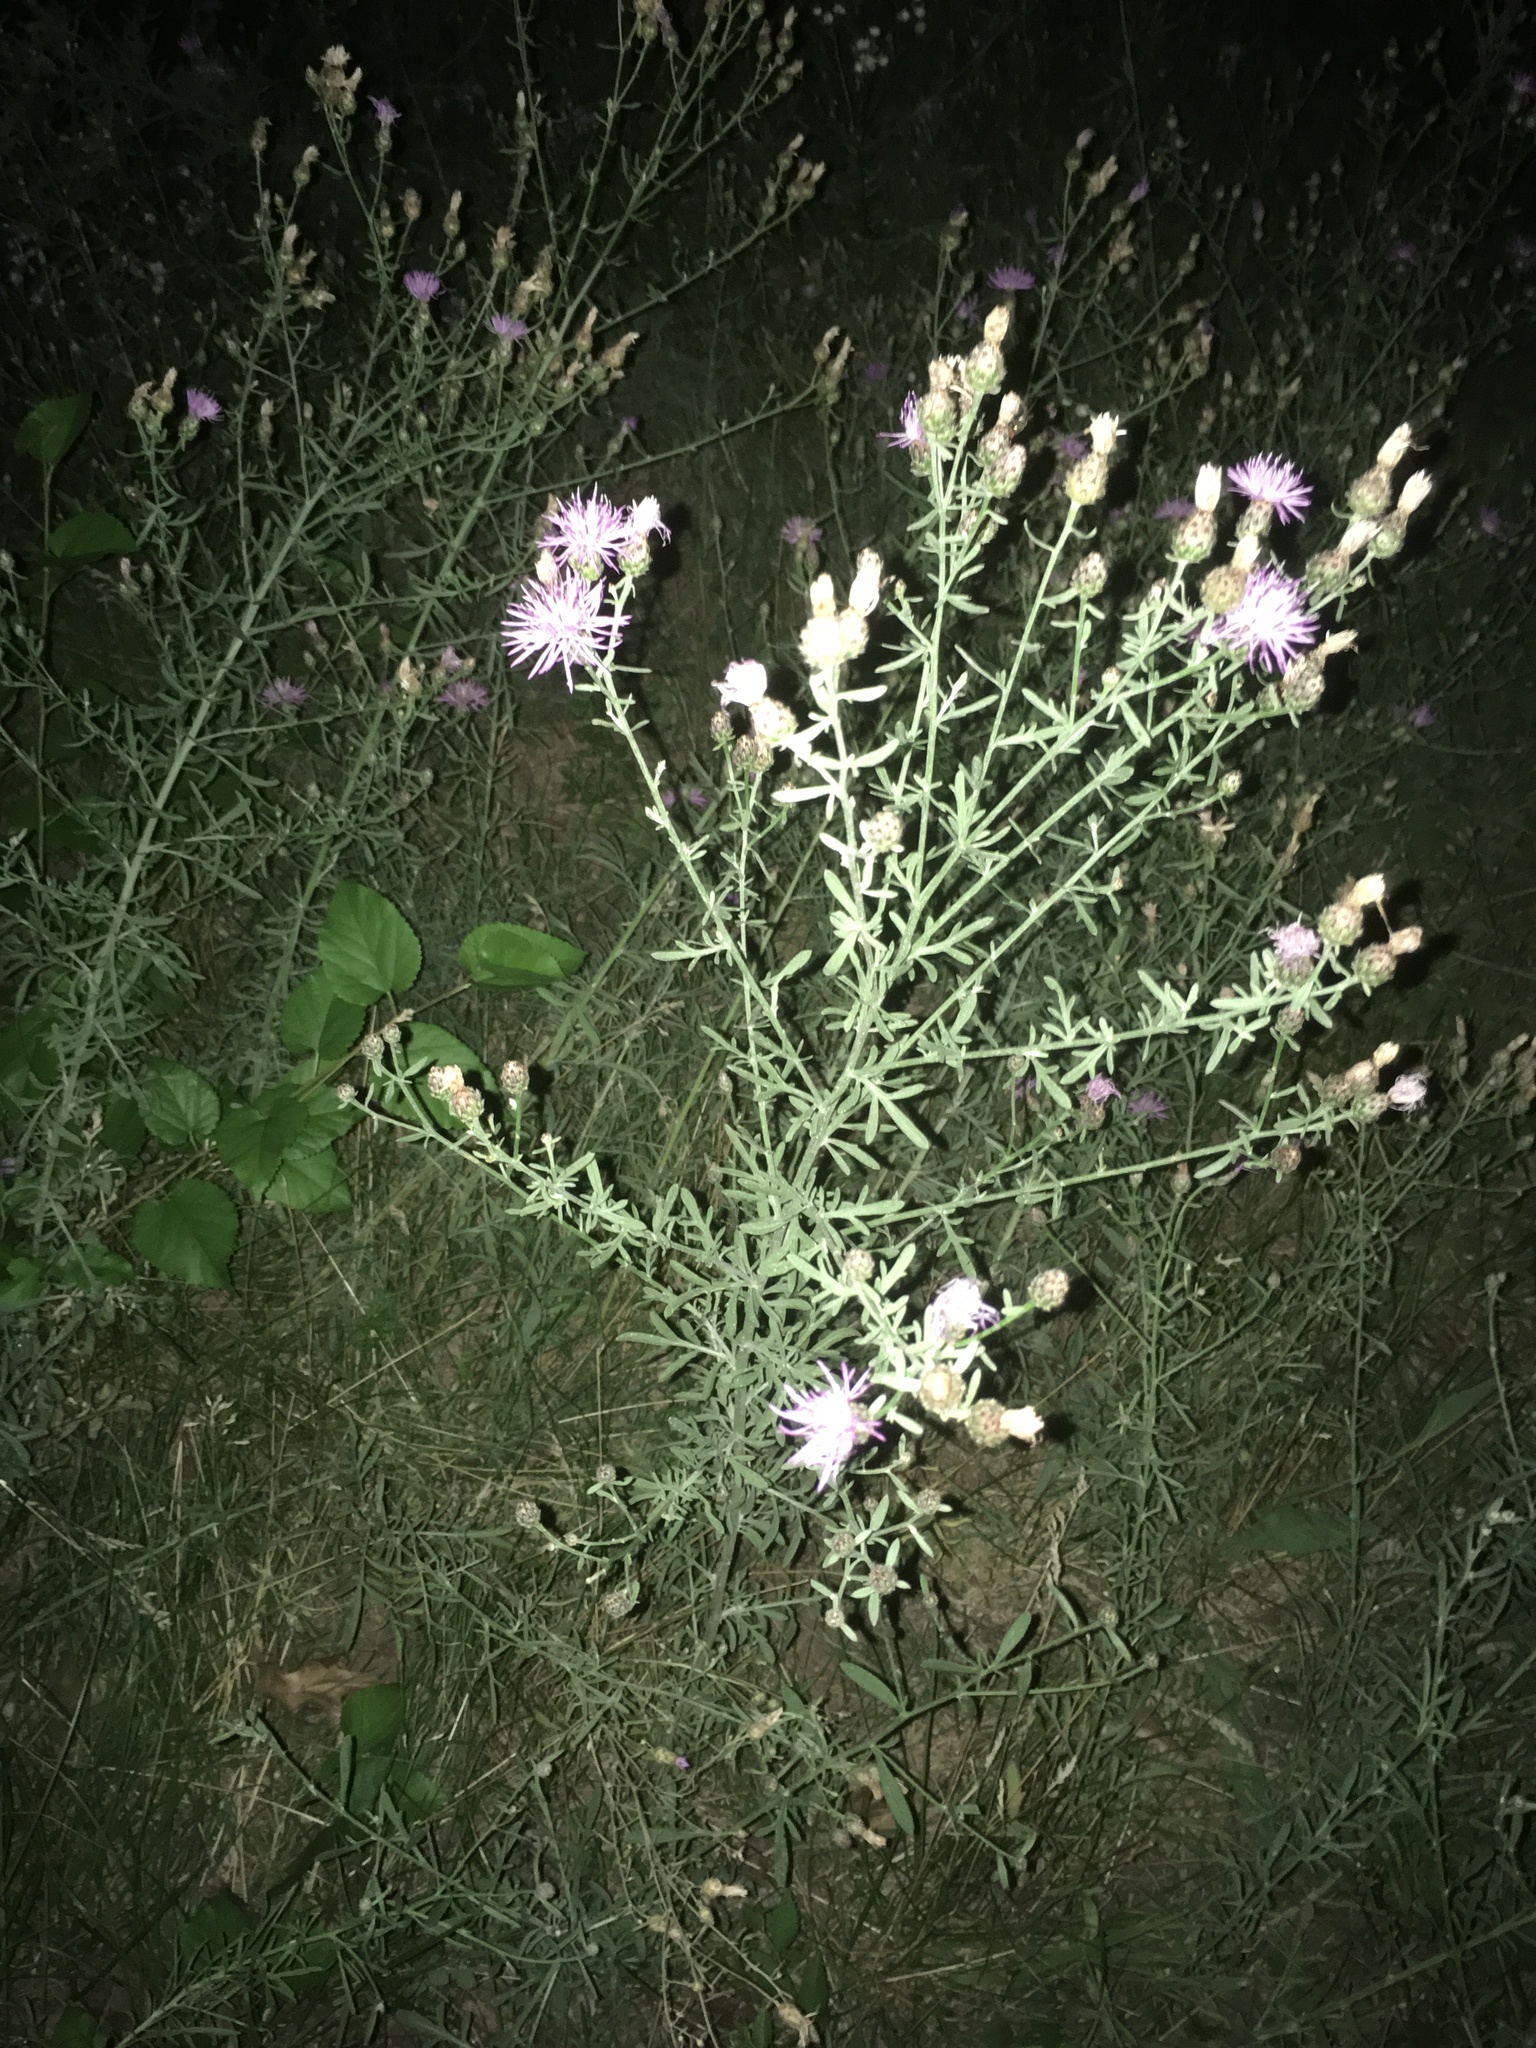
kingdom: Plantae
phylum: Tracheophyta
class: Magnoliopsida
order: Asterales
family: Asteraceae
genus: Centaurea
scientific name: Centaurea stoebe
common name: Spotted knapweed
